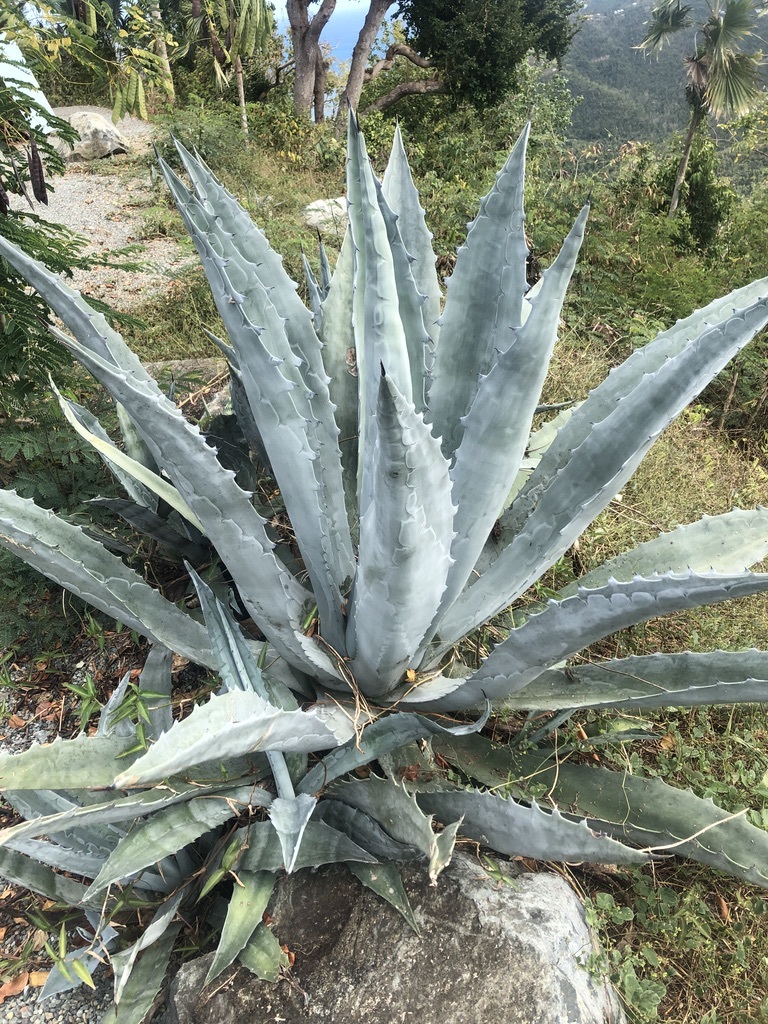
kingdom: Plantae
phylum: Tracheophyta
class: Liliopsida
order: Asparagales
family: Asparagaceae
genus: Agave
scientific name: Agave americana
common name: Centuryplant
